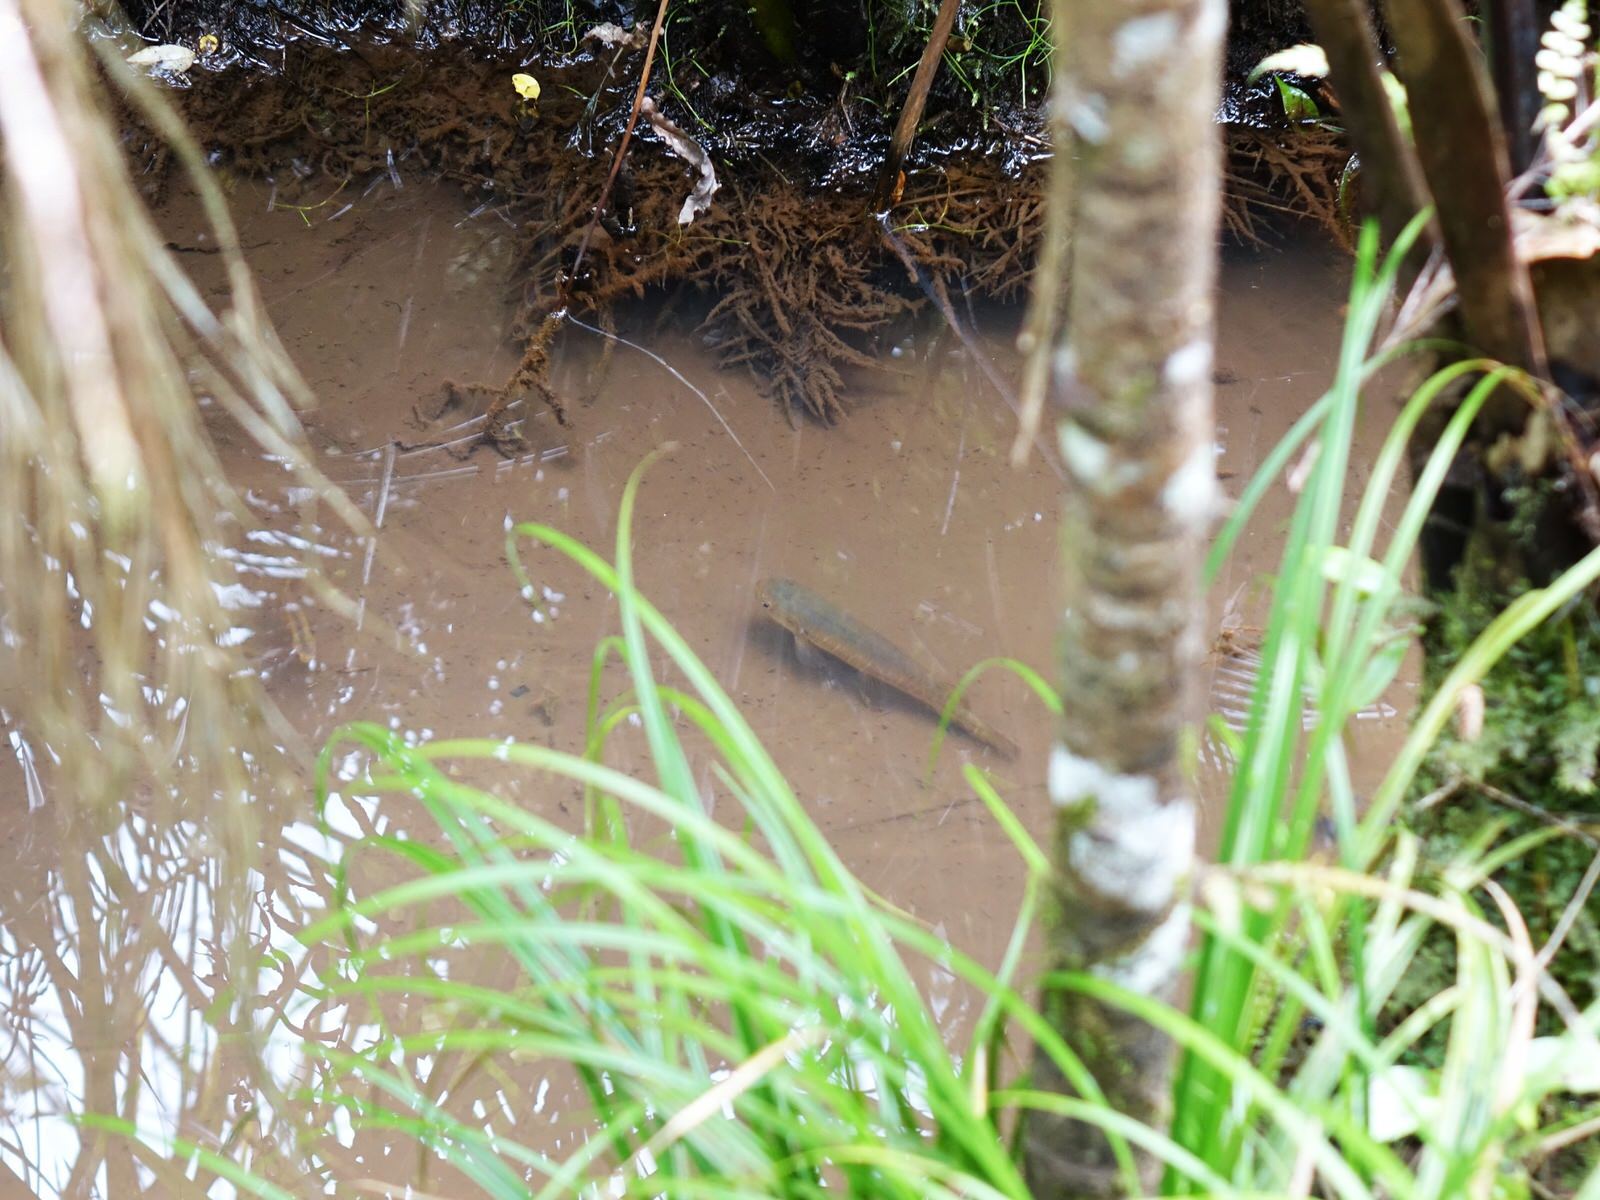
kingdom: Animalia
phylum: Chordata
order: Osmeriformes
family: Galaxiidae
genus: Galaxias
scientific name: Galaxias fasciatus
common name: Banded kokopu
